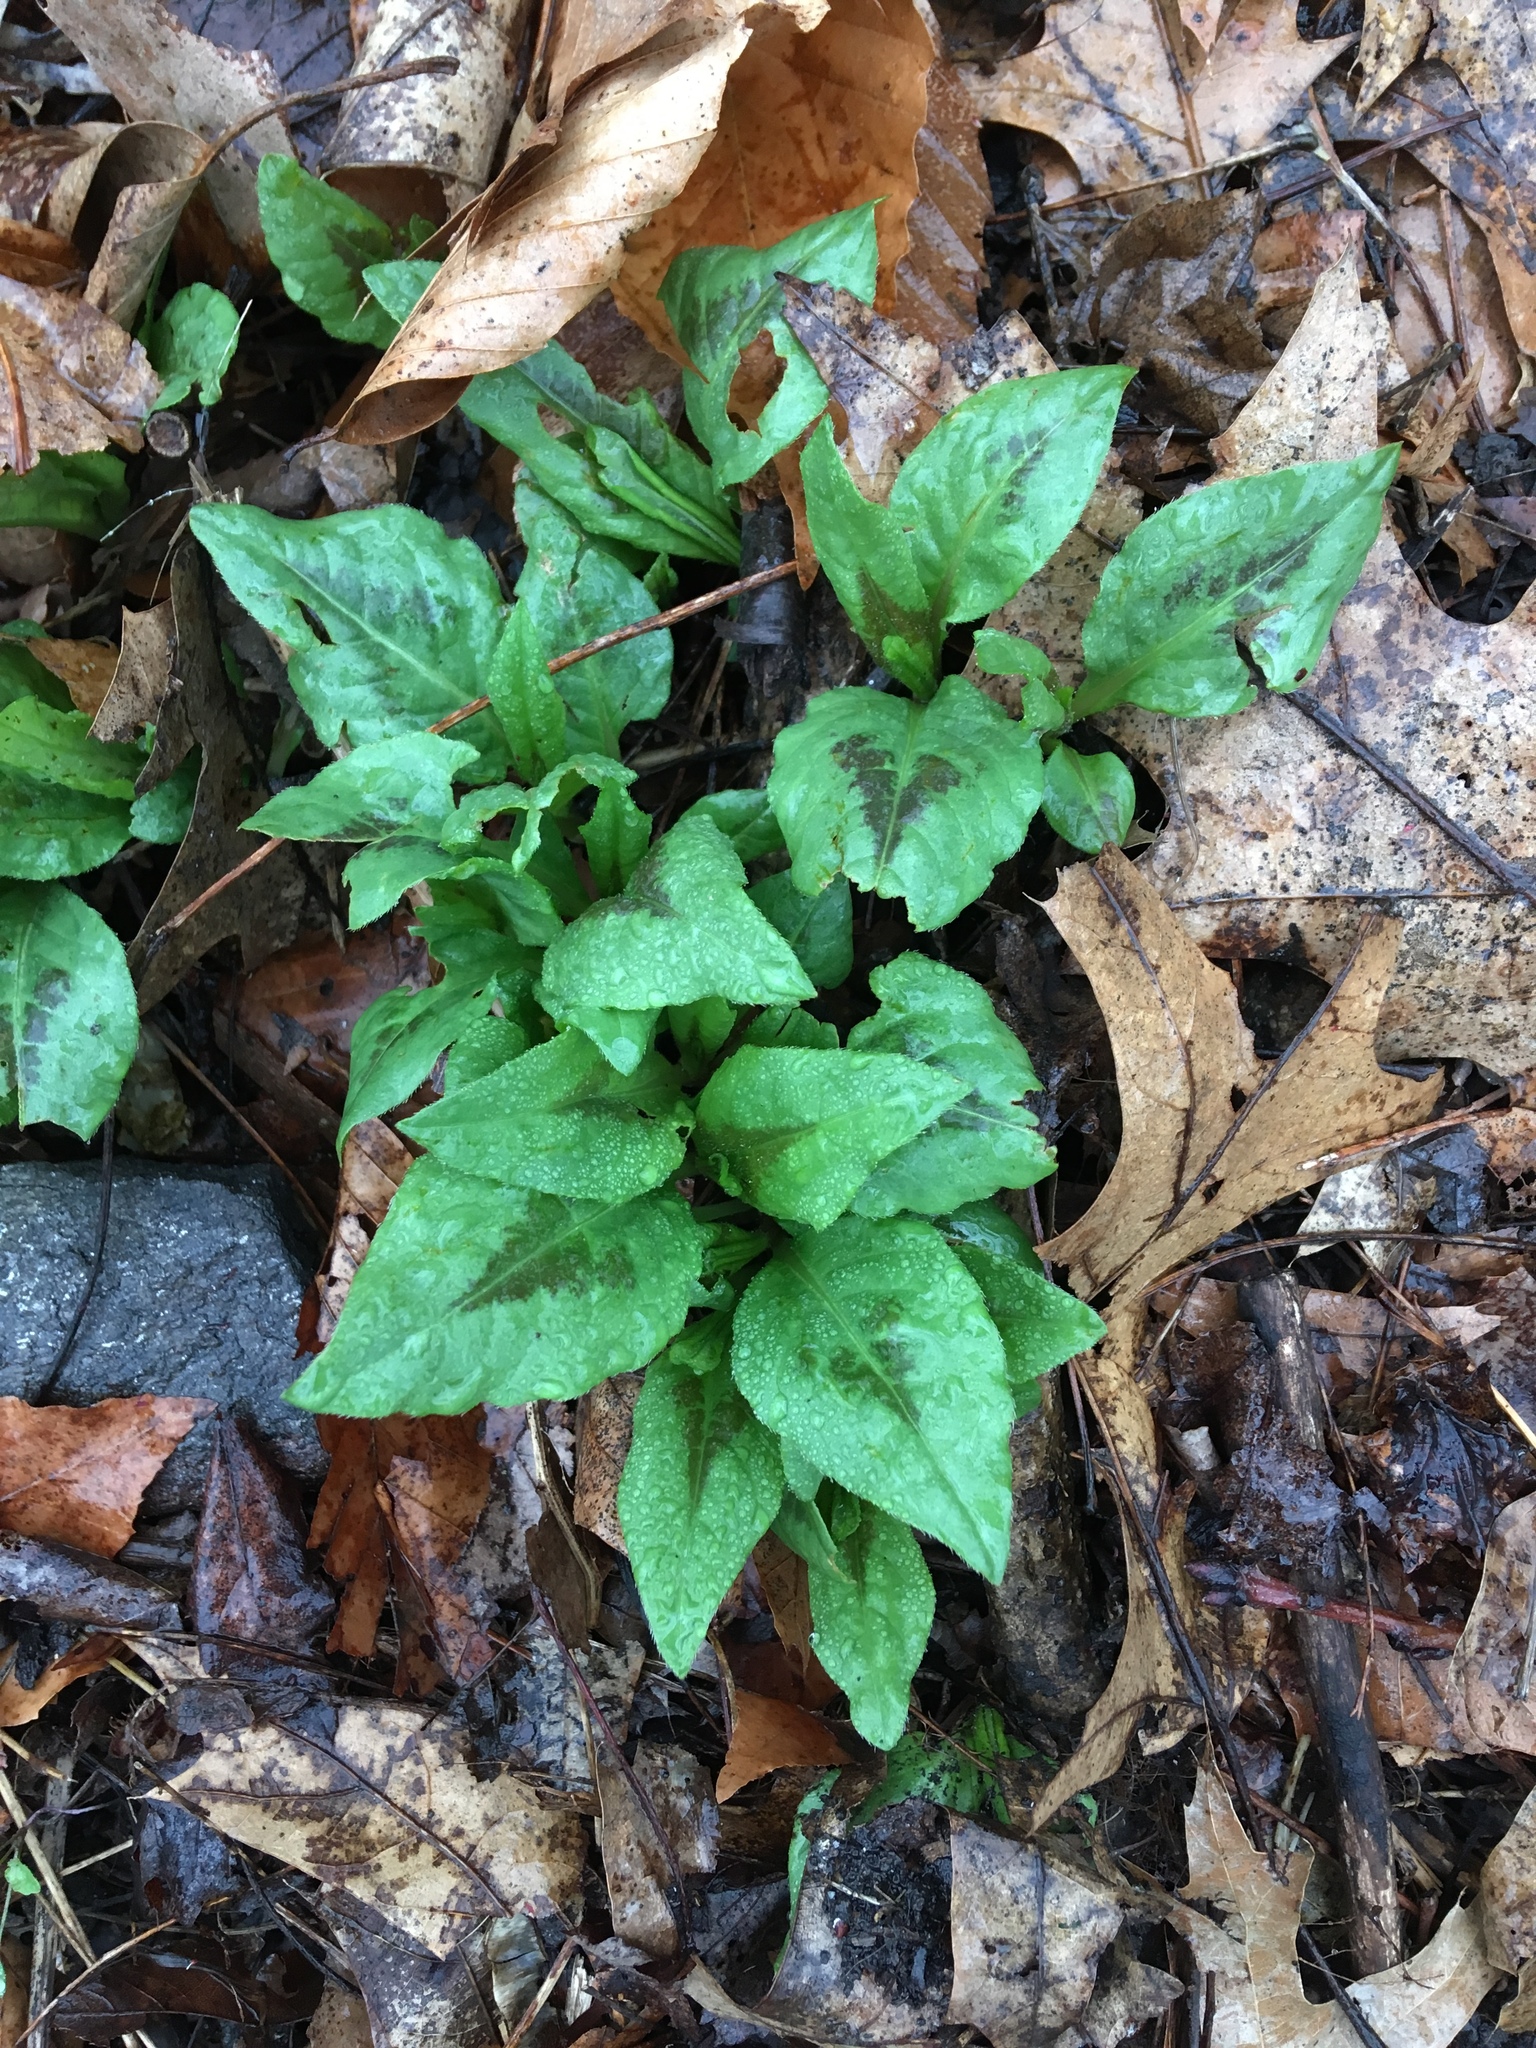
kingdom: Plantae
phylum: Tracheophyta
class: Magnoliopsida
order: Caryophyllales
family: Polygonaceae
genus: Persicaria
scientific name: Persicaria virginiana
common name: Jumpseed
